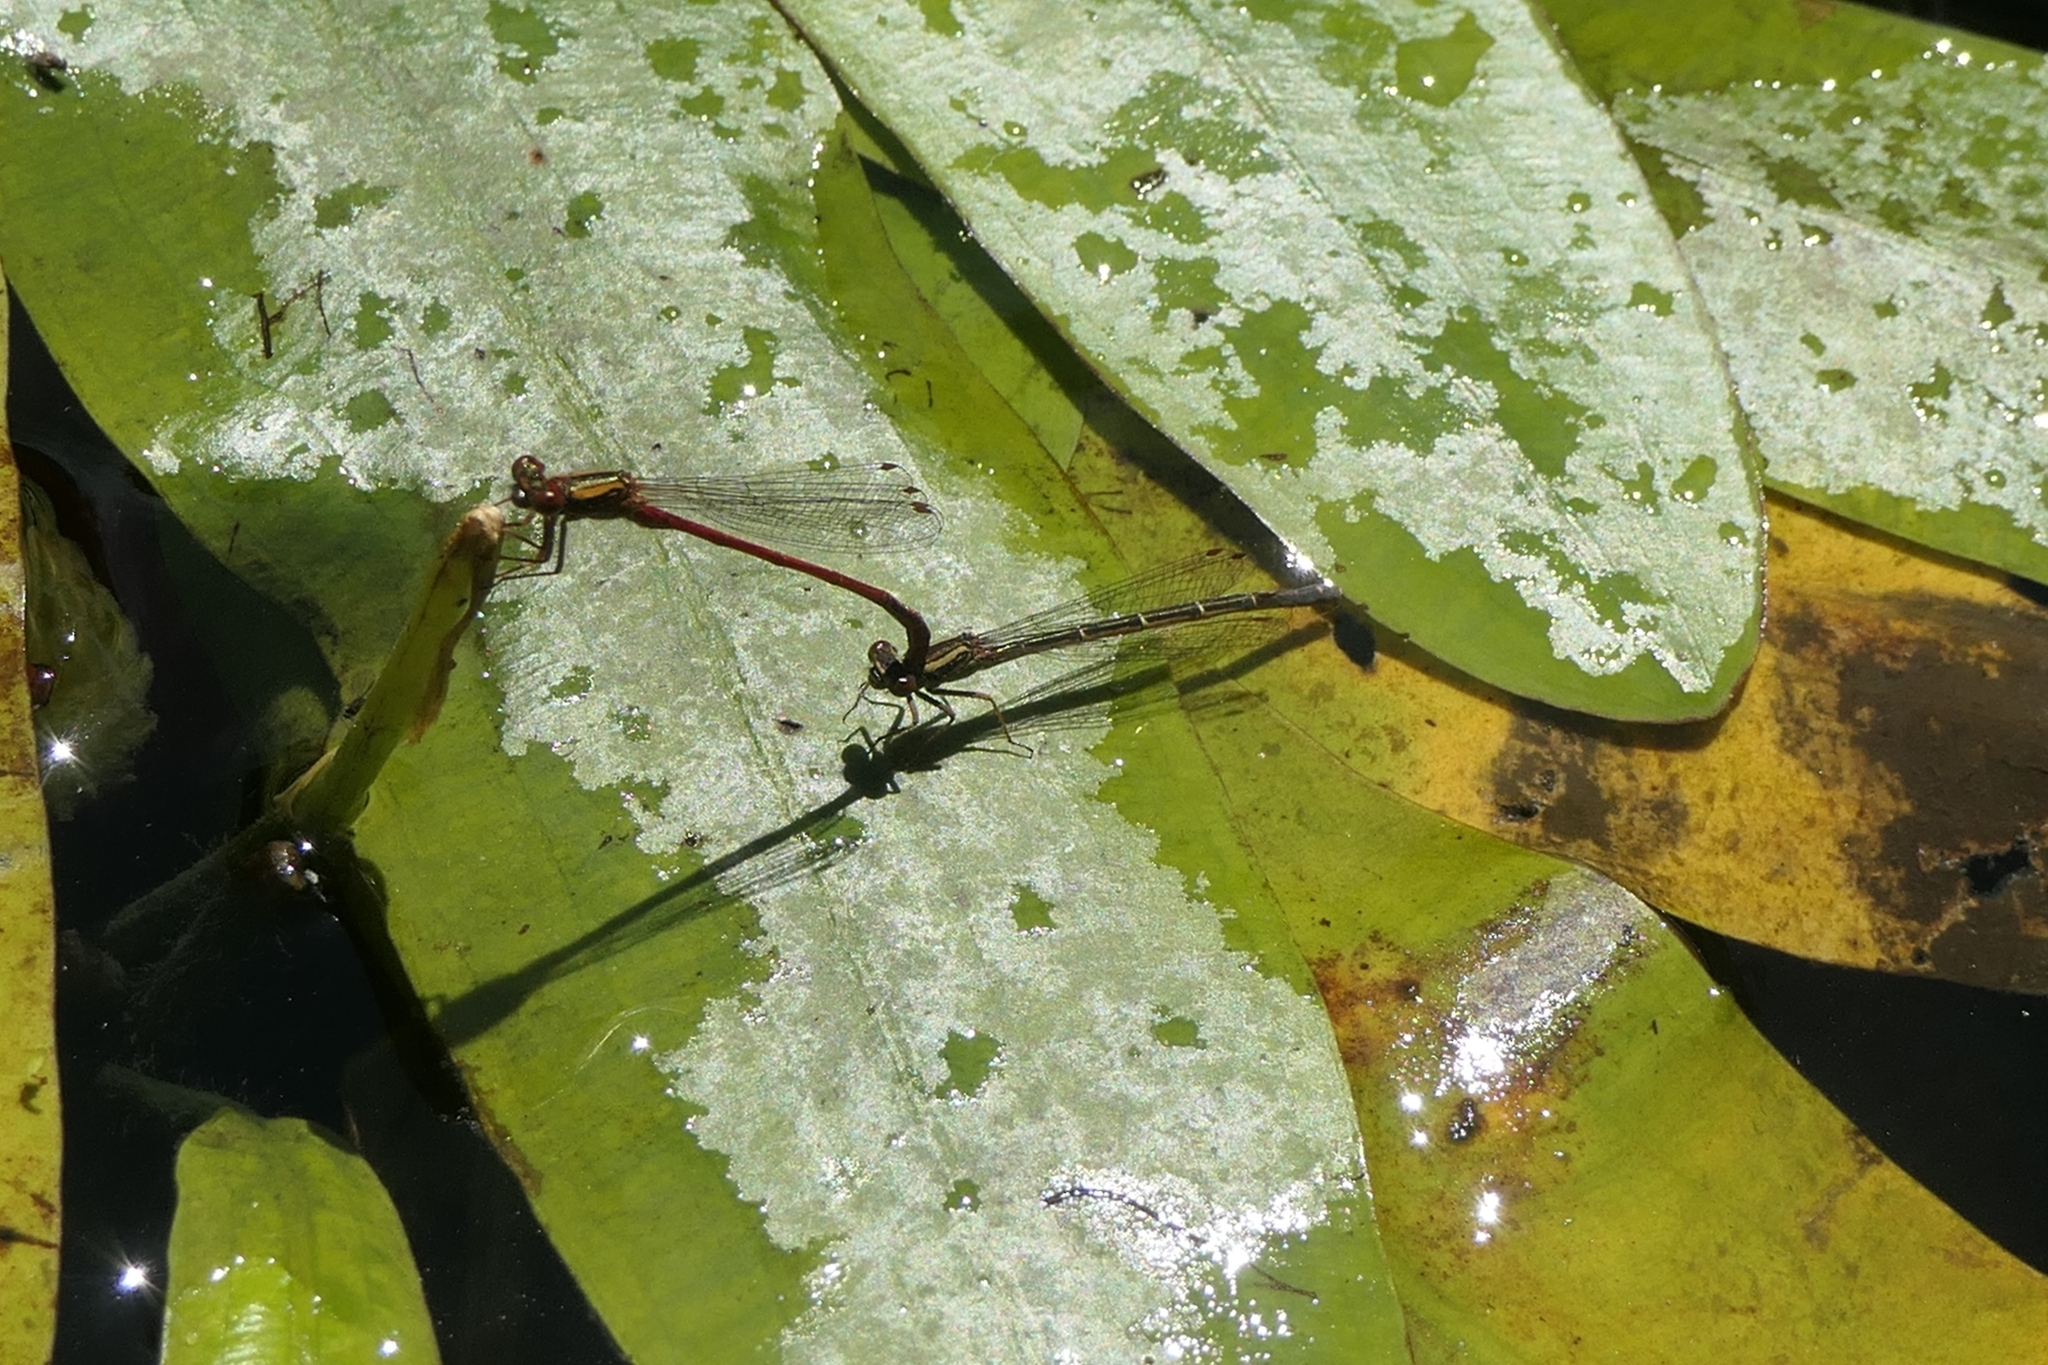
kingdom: Animalia
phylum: Arthropoda
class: Insecta
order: Odonata
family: Coenagrionidae
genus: Xanthocnemis
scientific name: Xanthocnemis zealandica
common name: Common redcoat damselfly
